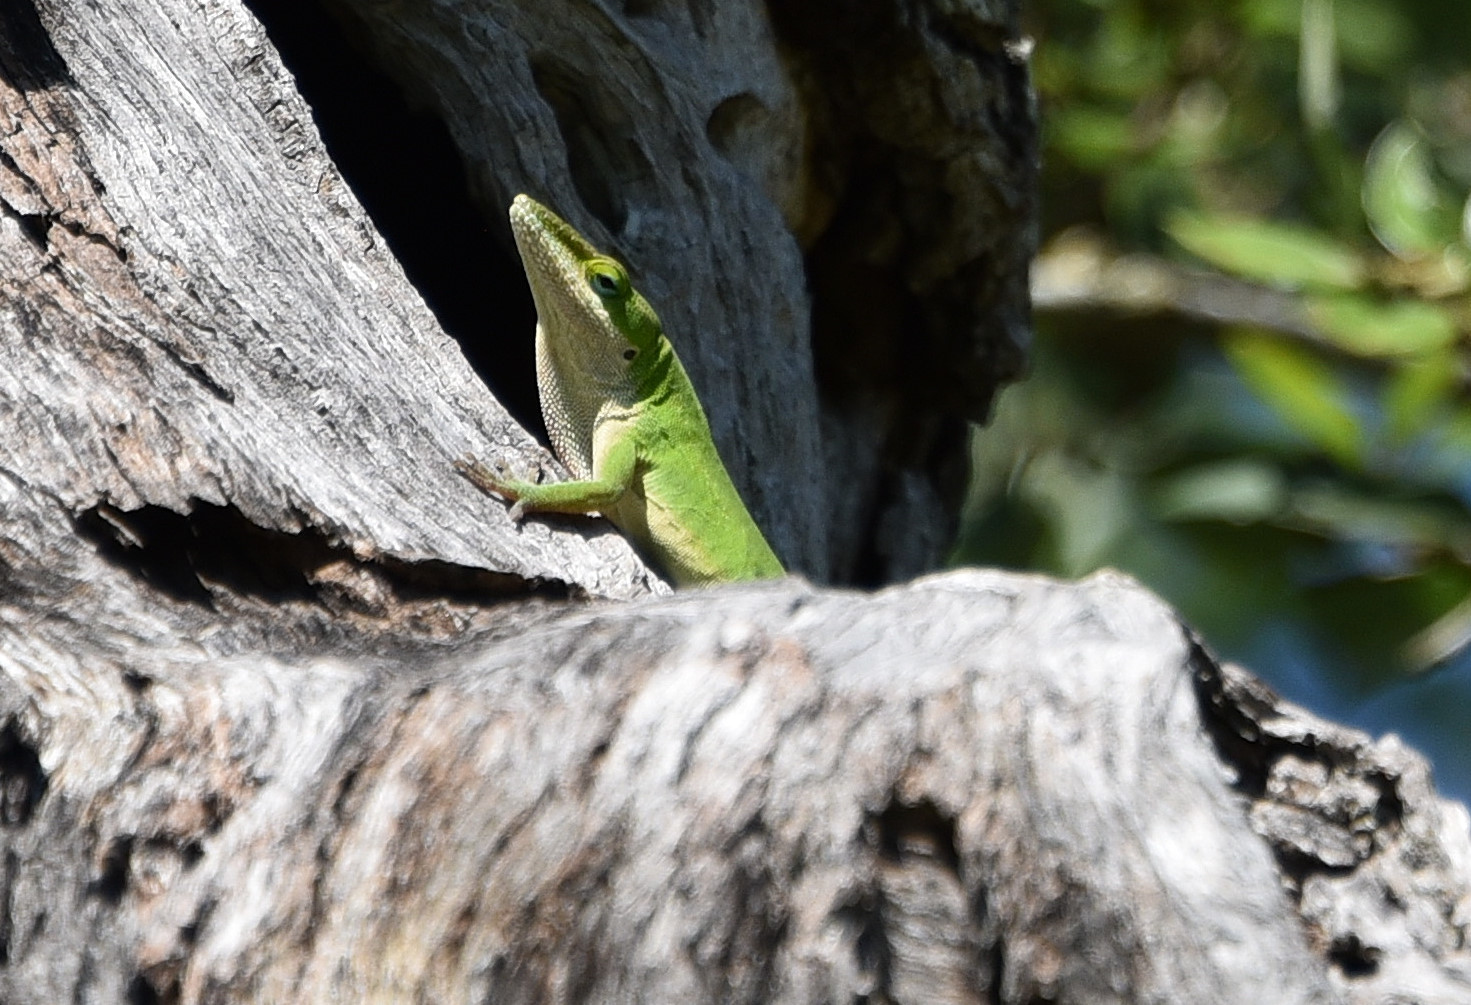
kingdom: Animalia
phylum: Chordata
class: Squamata
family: Dactyloidae
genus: Anolis
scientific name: Anolis carolinensis
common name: Green anole
